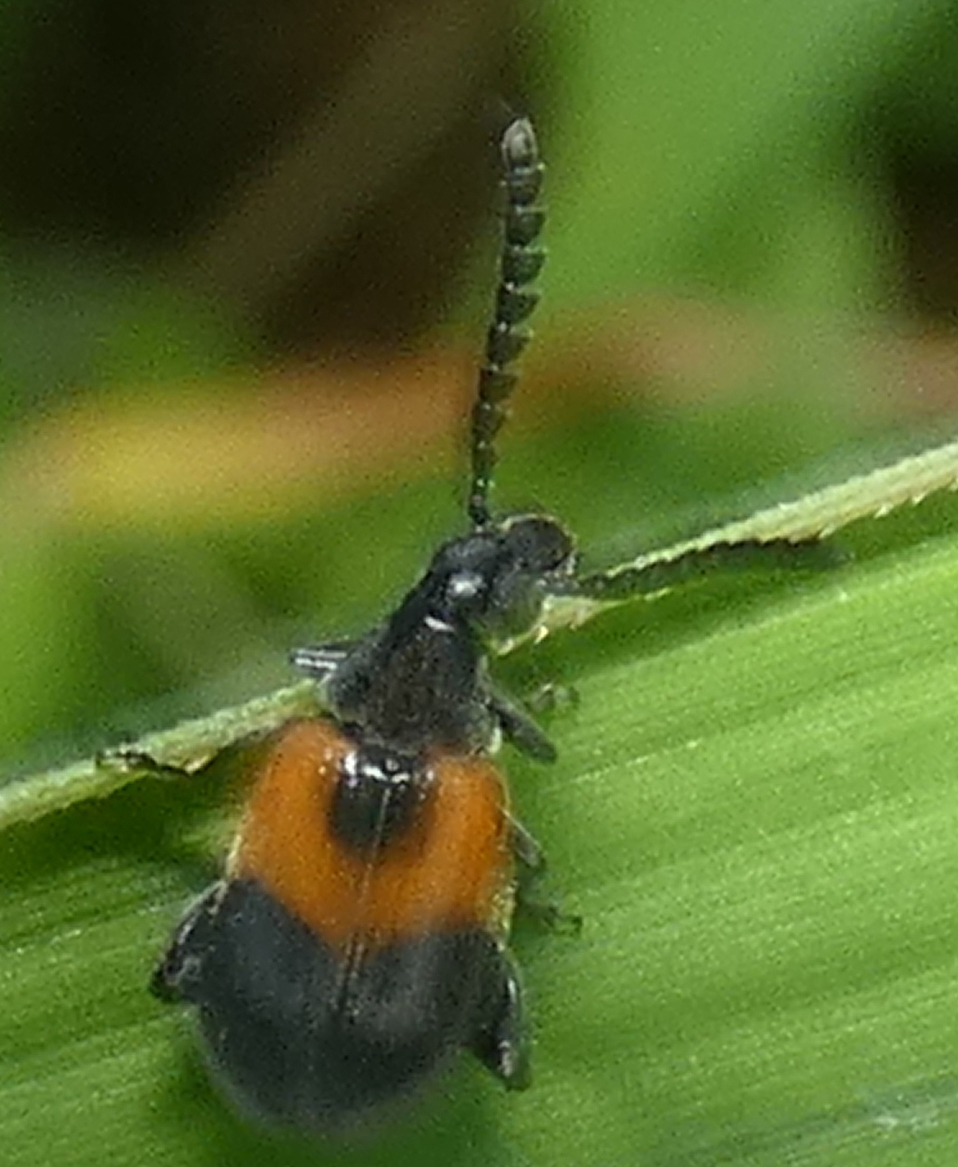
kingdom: Animalia
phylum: Arthropoda
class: Insecta
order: Coleoptera
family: Chrysomelidae
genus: Eubaptus
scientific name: Eubaptus
